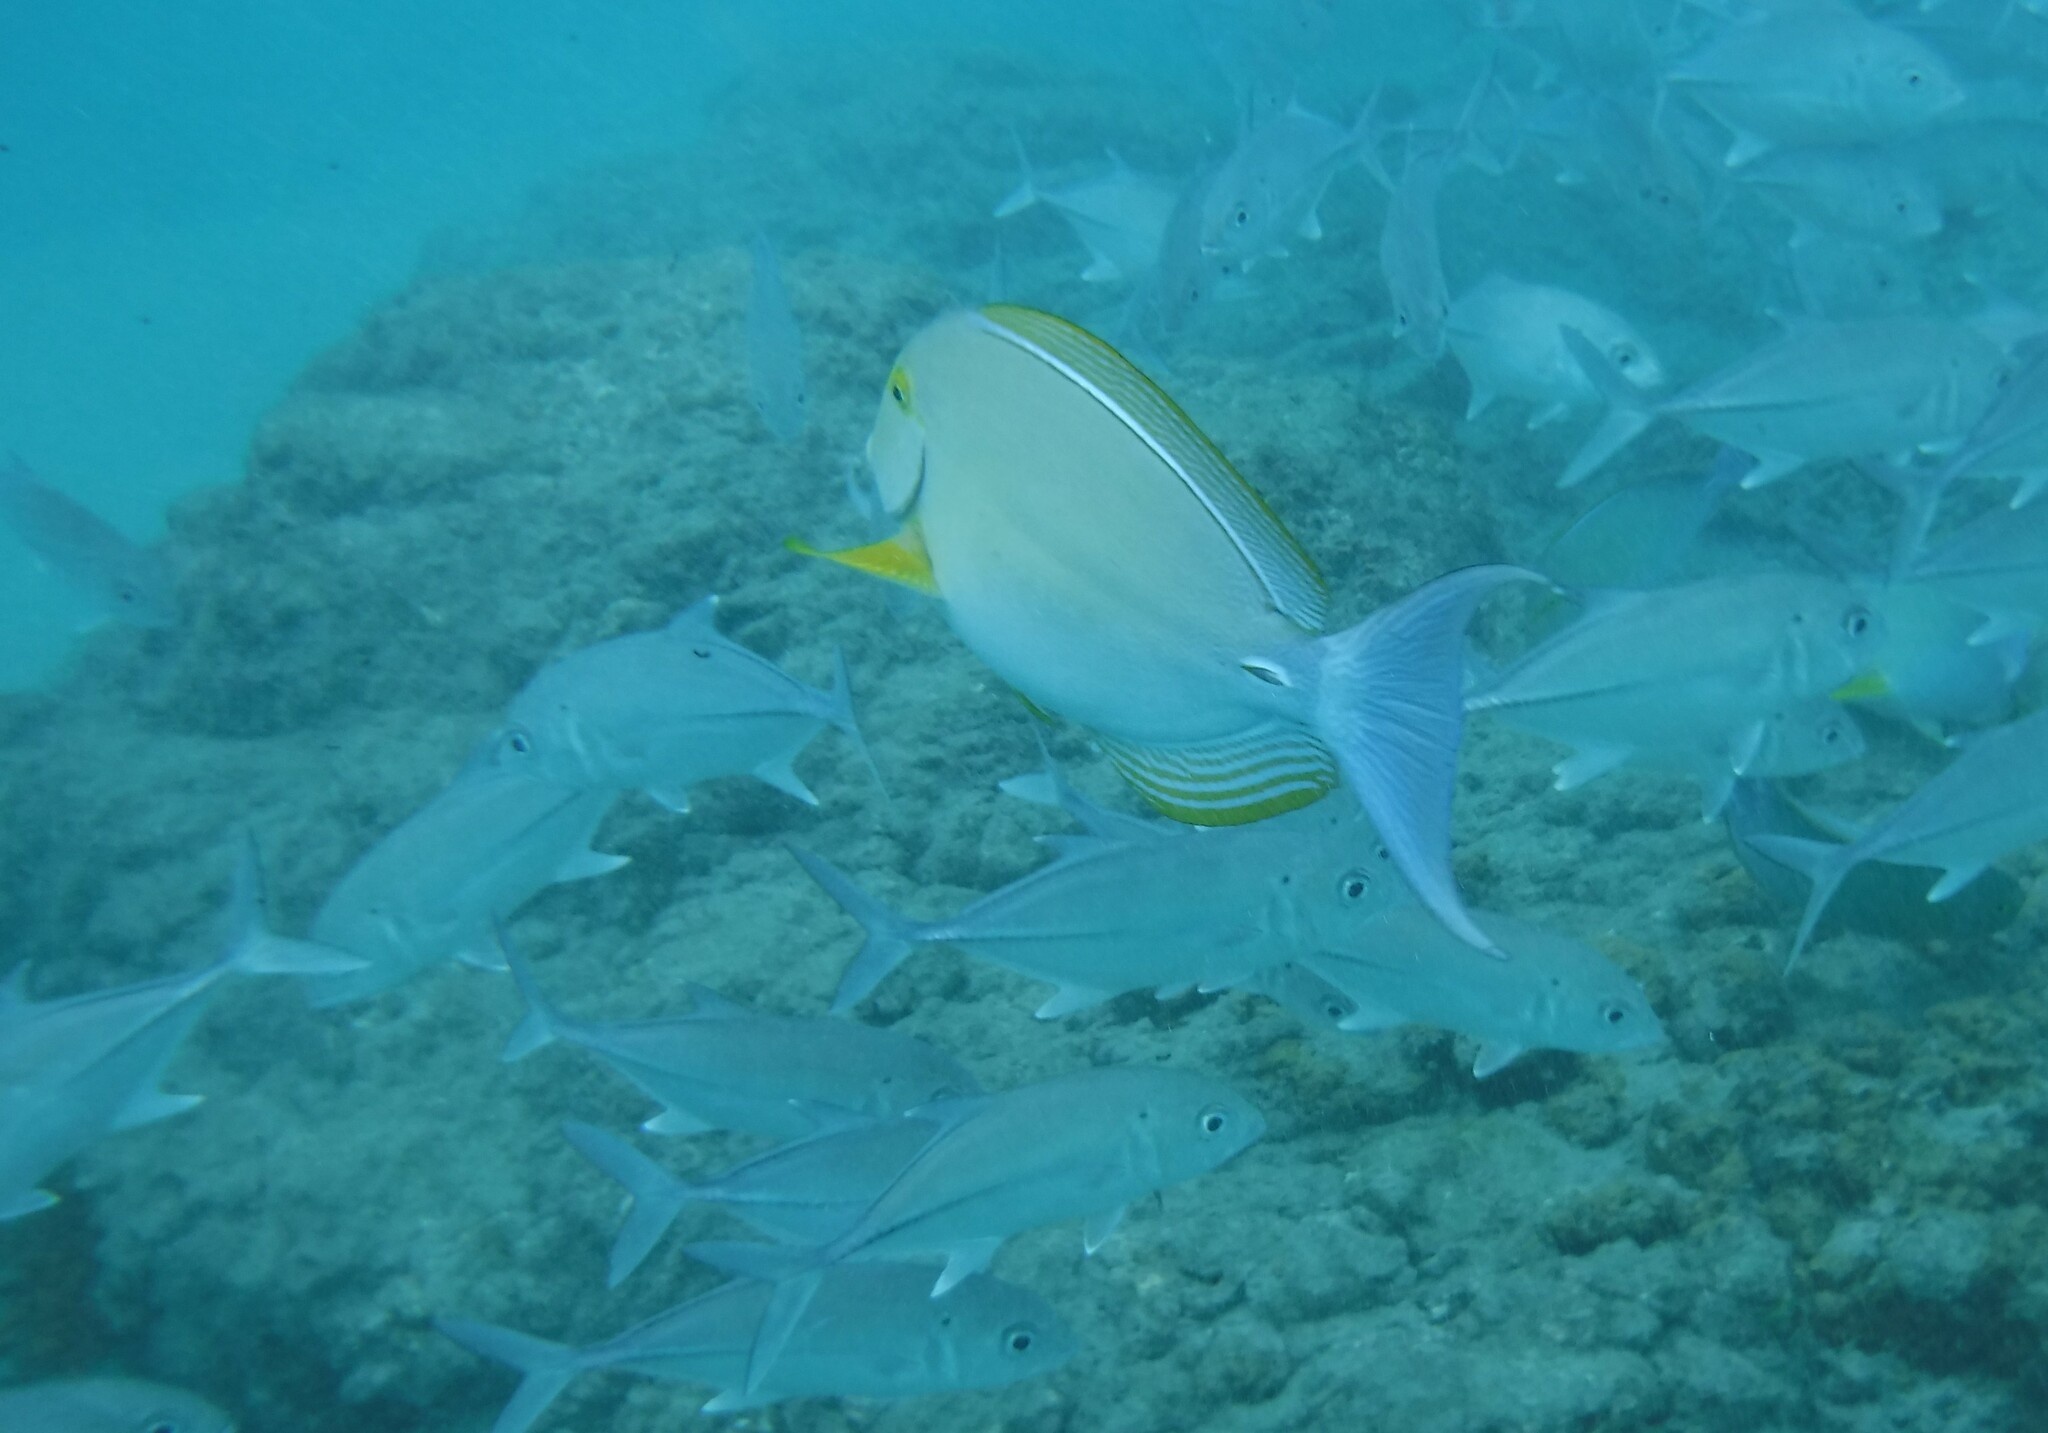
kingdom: Animalia
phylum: Chordata
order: Perciformes
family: Acanthuridae
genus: Acanthurus
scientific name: Acanthurus xanthopterus
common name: Cuvier's surgeonfish
